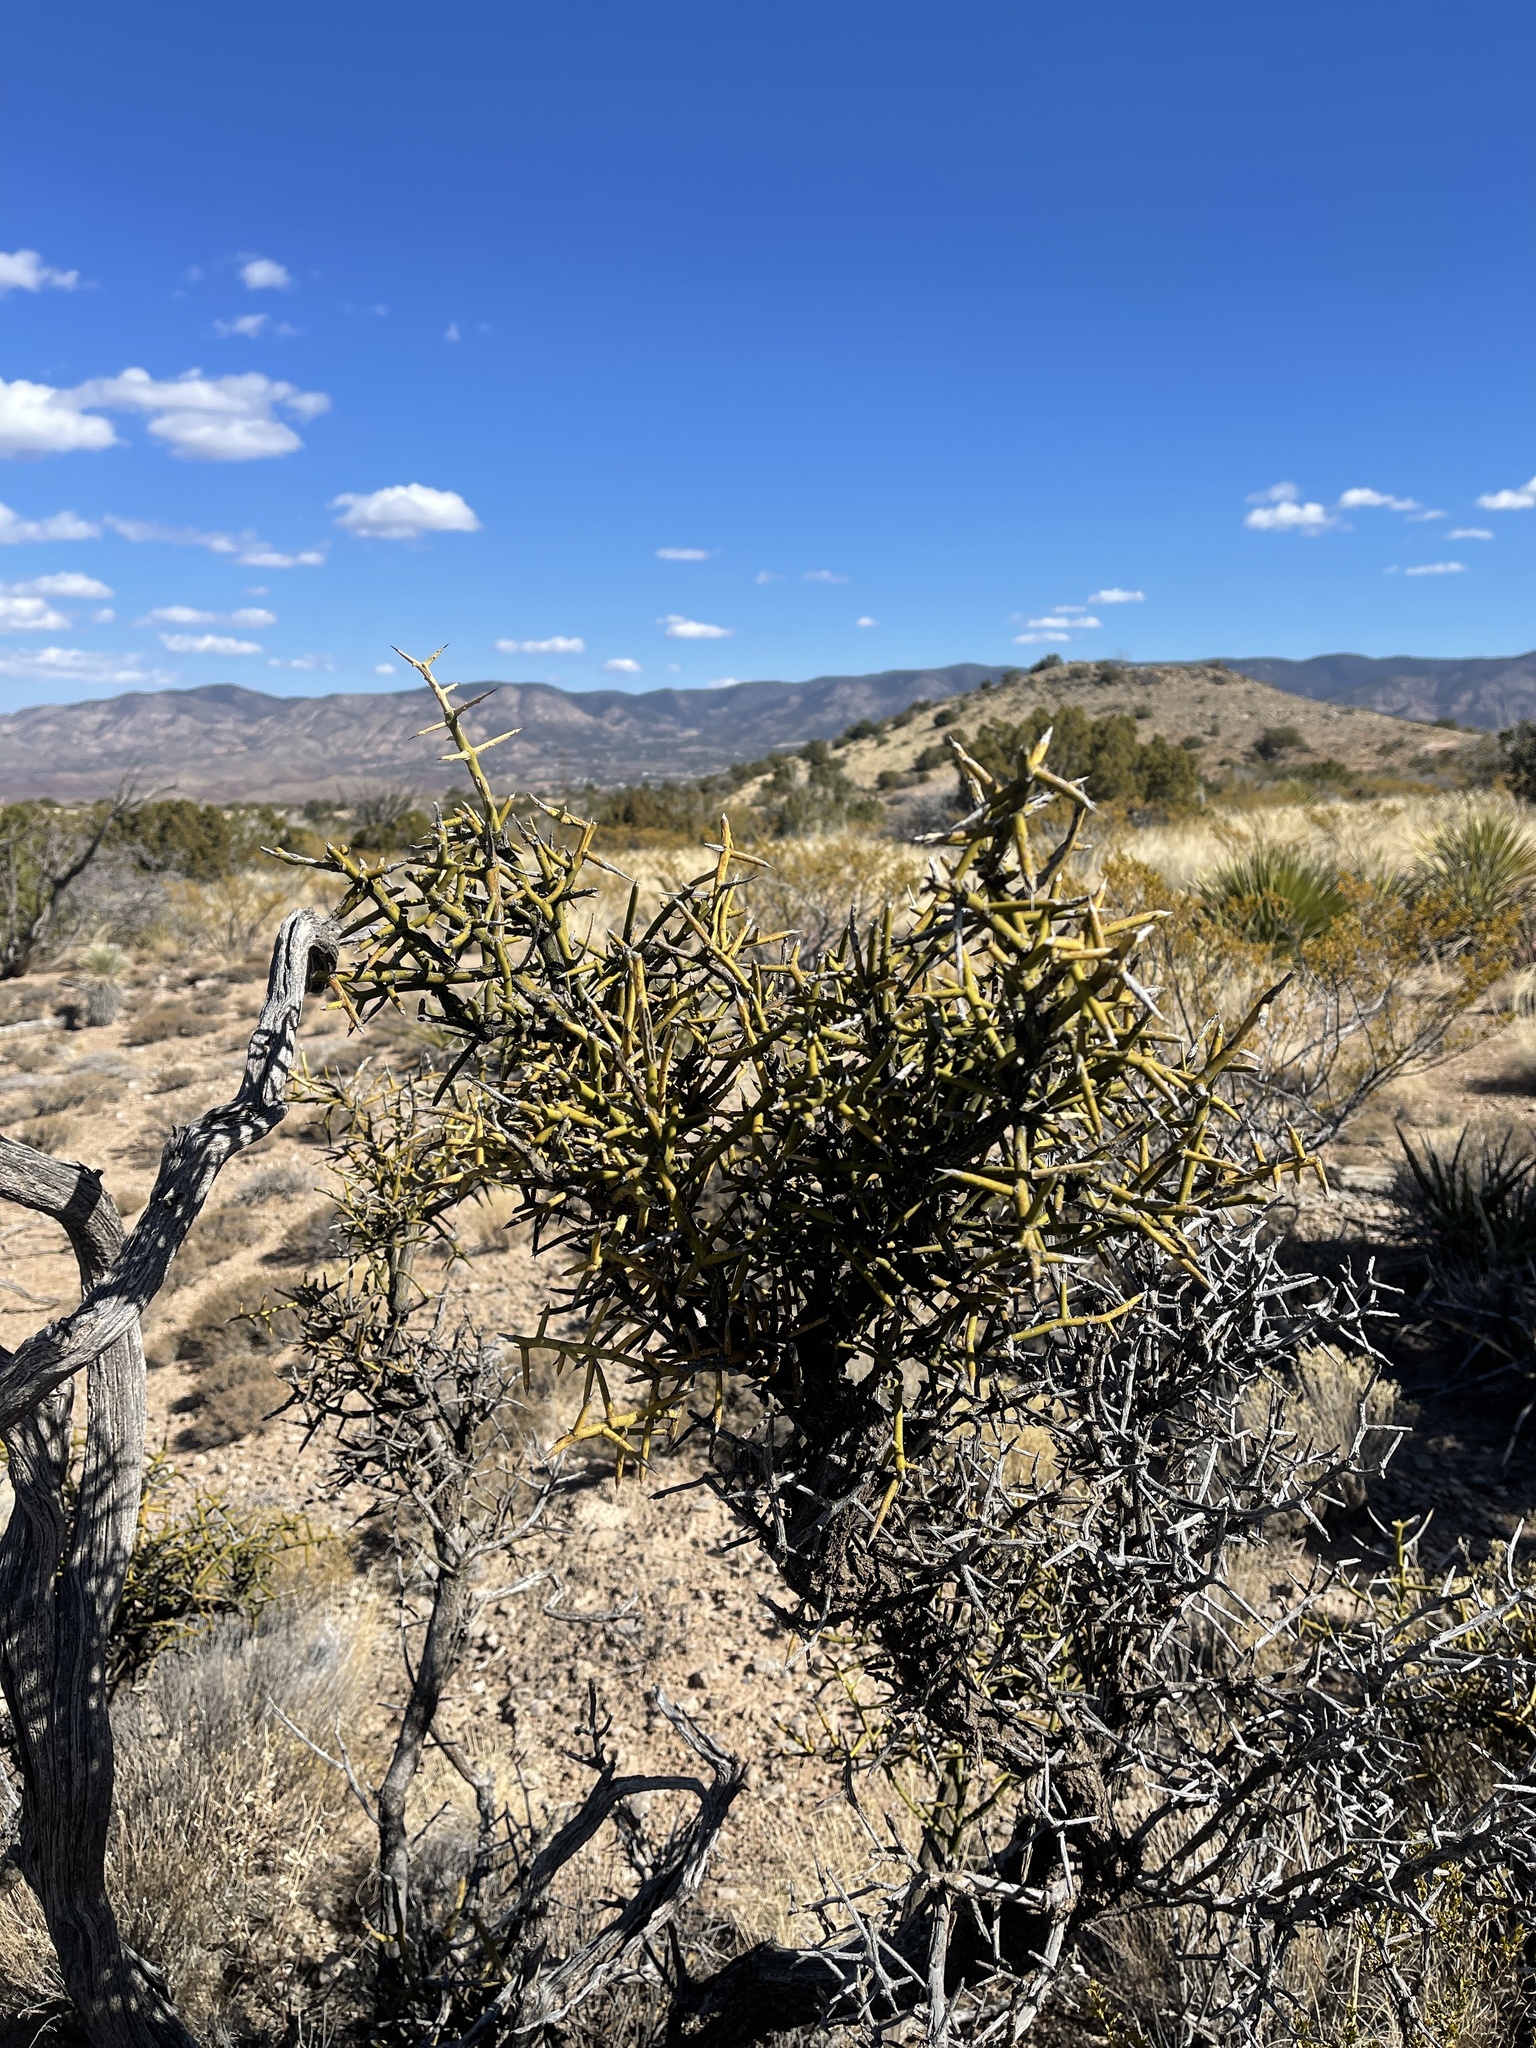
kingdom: Plantae
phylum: Tracheophyta
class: Magnoliopsida
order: Brassicales
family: Koeberliniaceae
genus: Koeberlinia
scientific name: Koeberlinia spinosa
